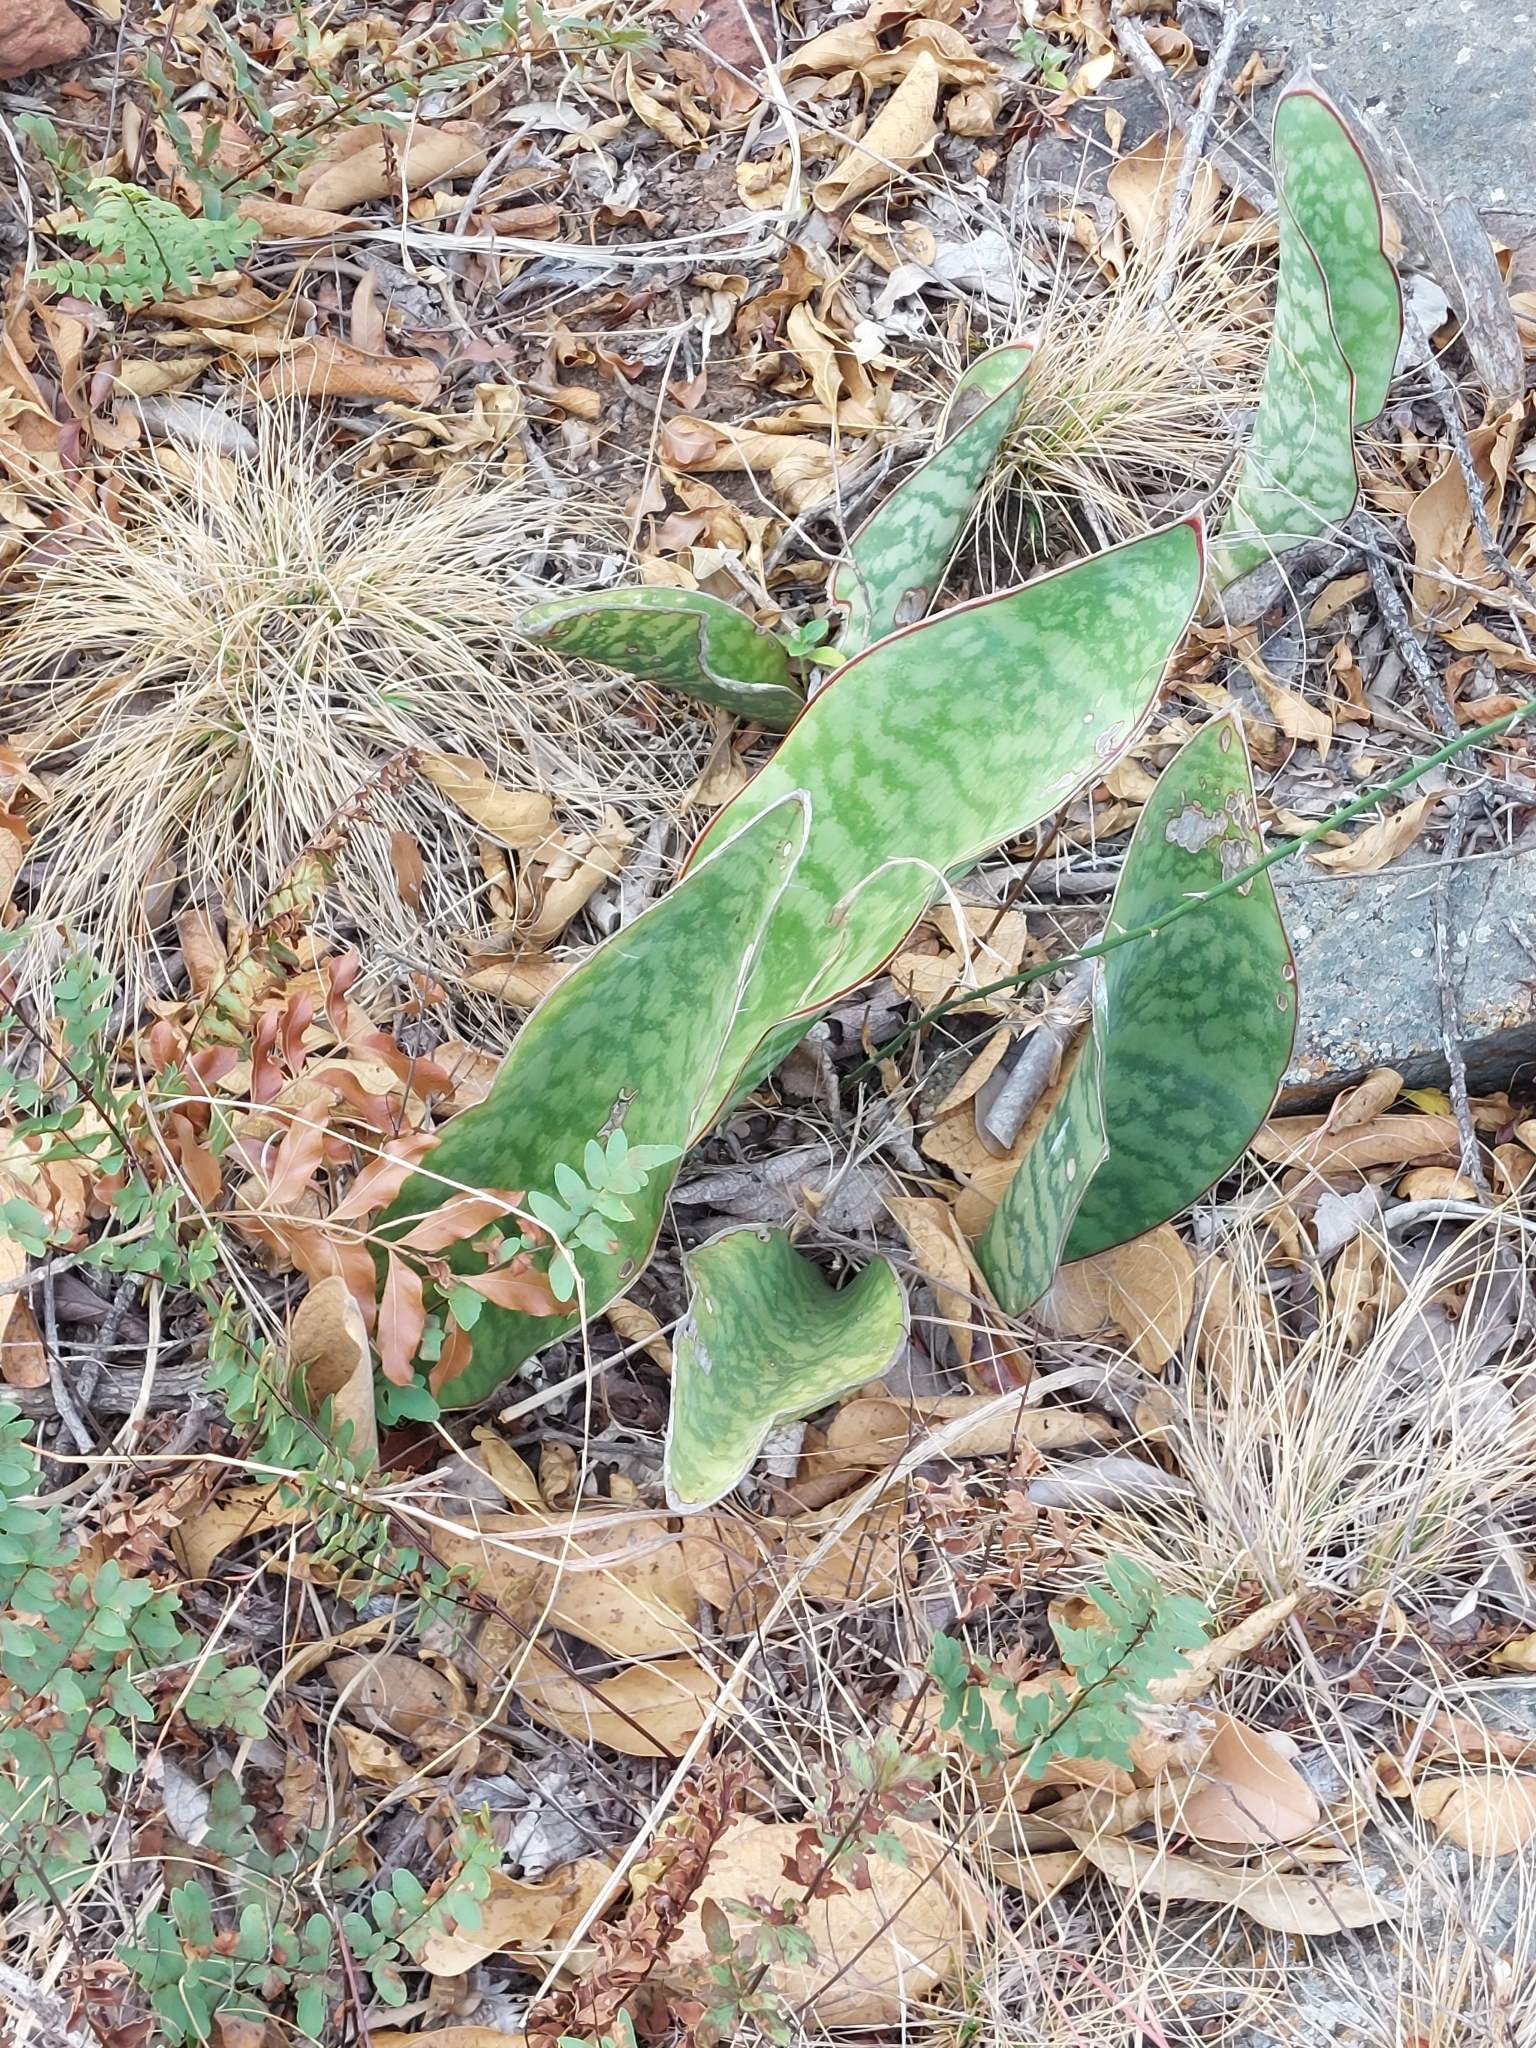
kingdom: Plantae
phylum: Tracheophyta
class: Liliopsida
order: Asparagales
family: Asparagaceae
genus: Dracaena
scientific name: Dracaena hyacinthoides
